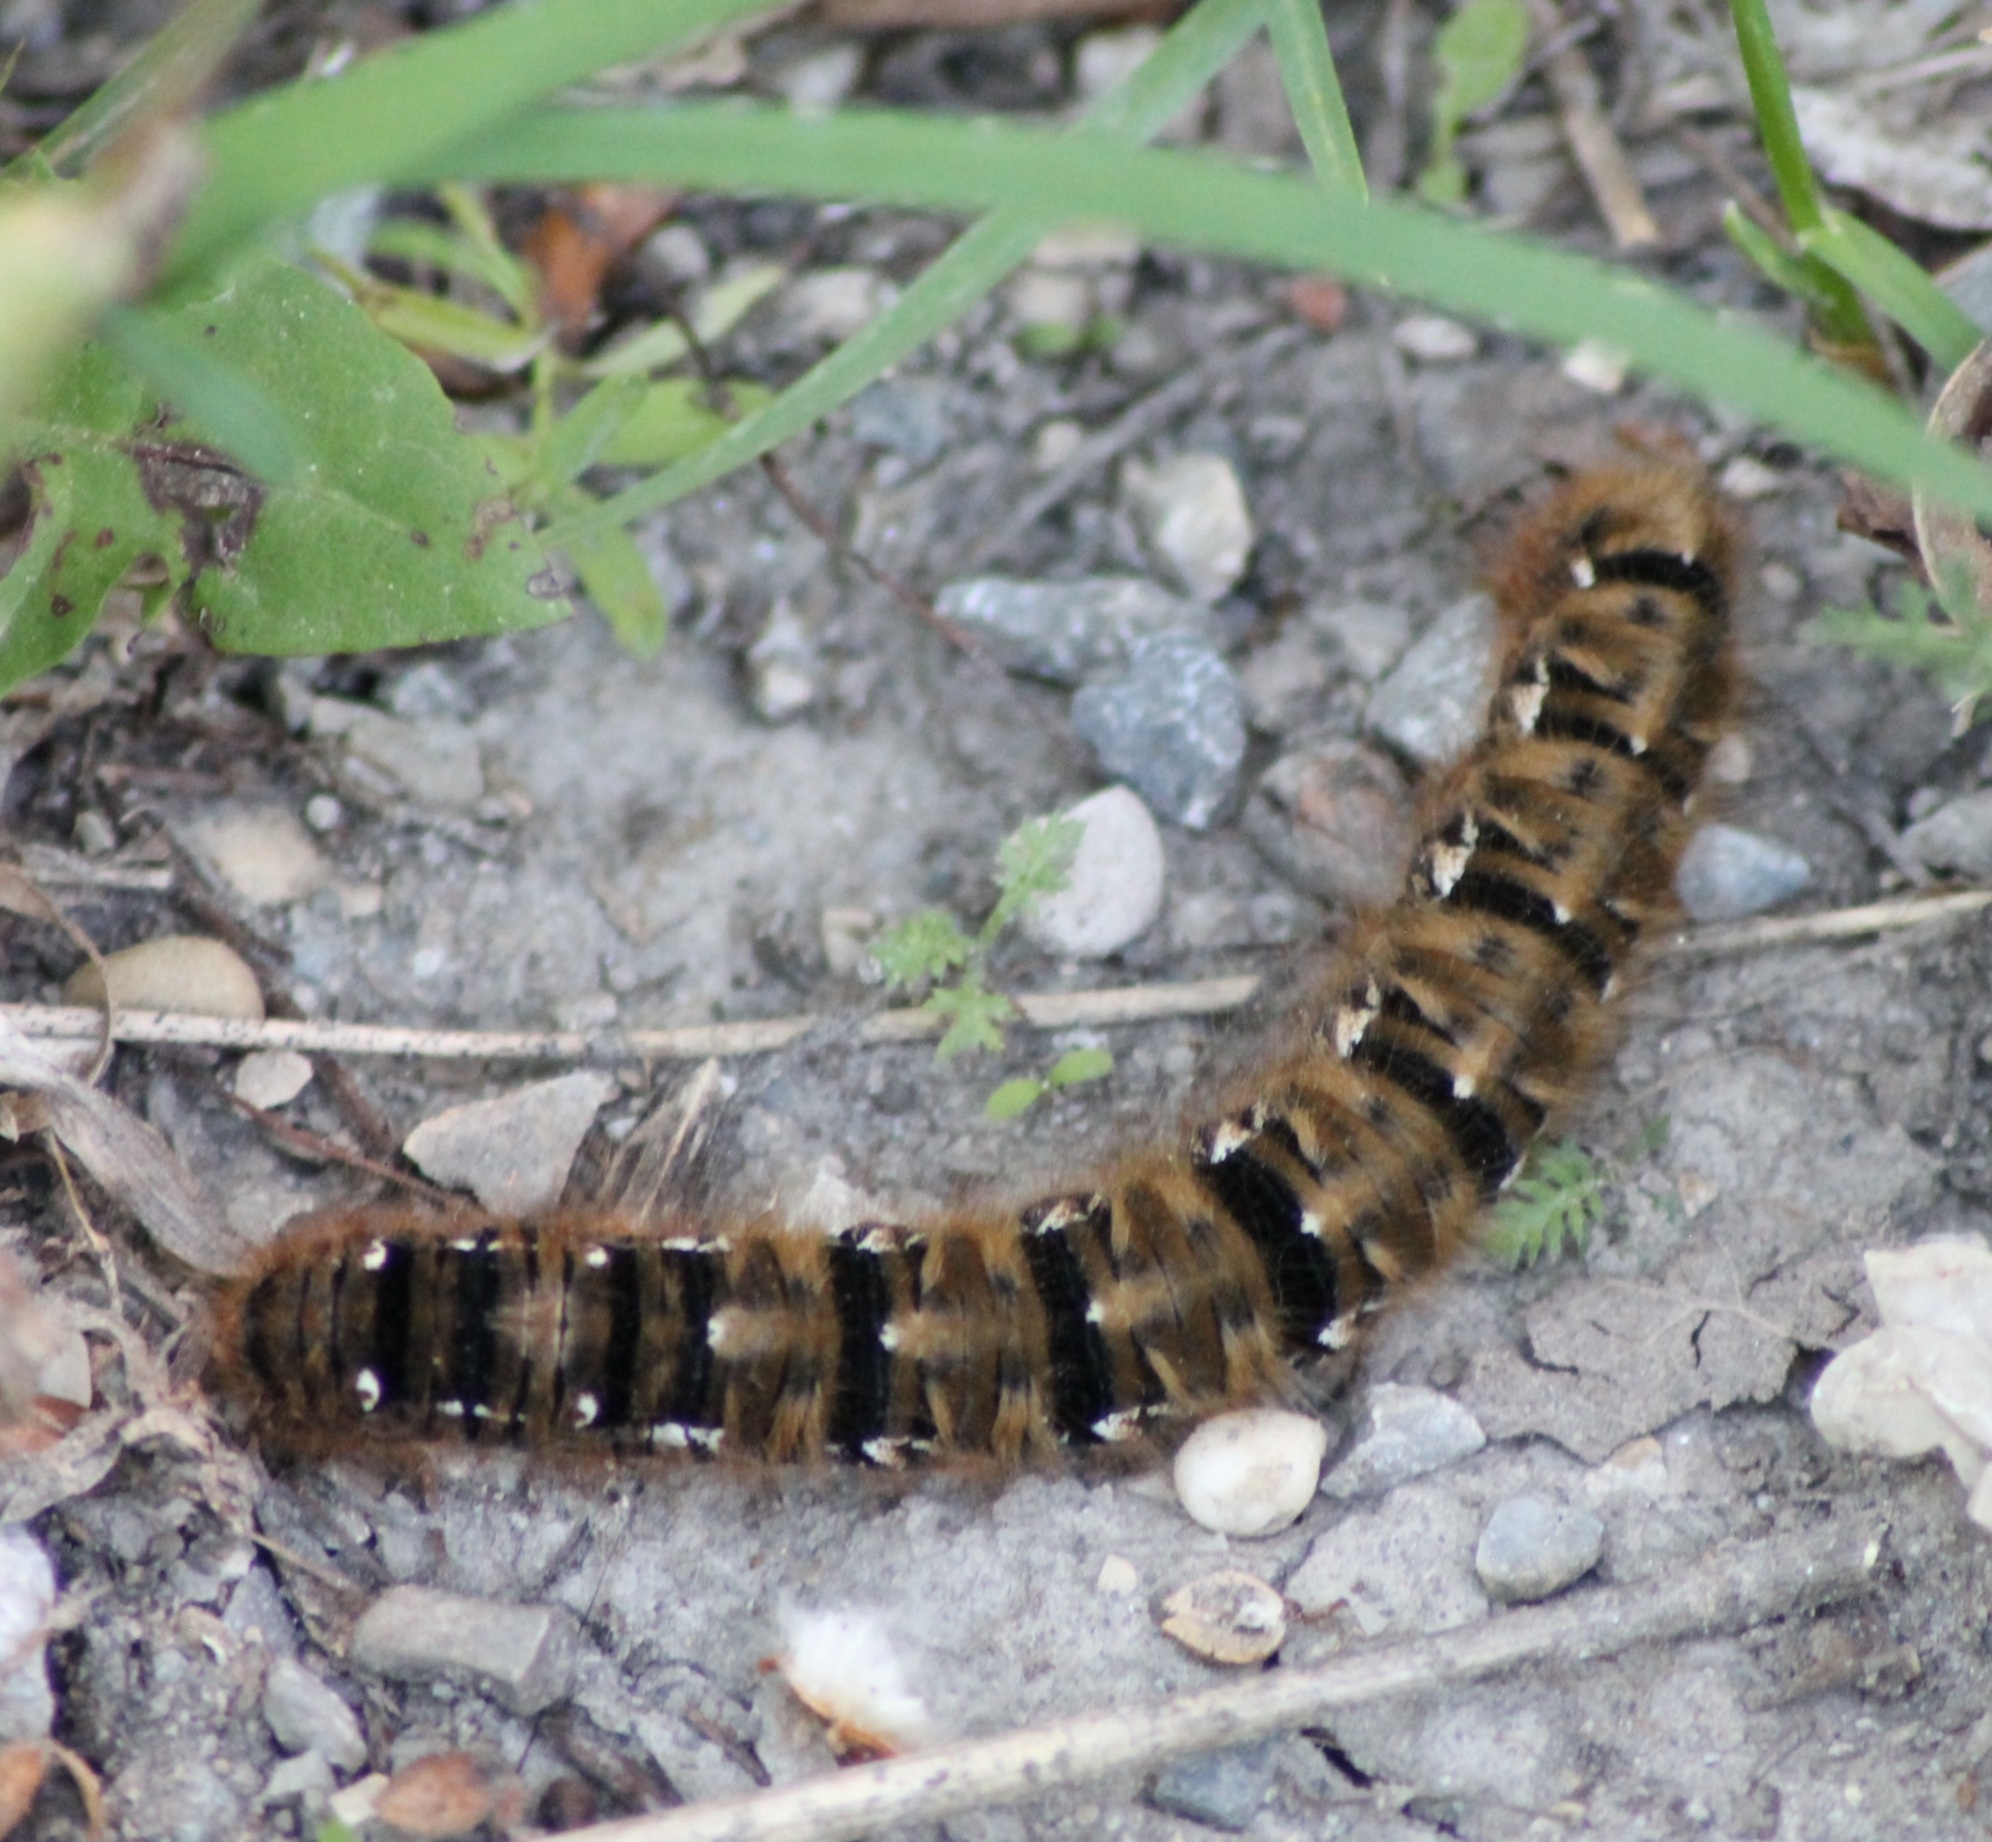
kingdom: Animalia
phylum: Arthropoda
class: Insecta
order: Lepidoptera
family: Lasiocampidae
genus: Lasiocampa
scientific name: Lasiocampa quercus
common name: Oak eggar
